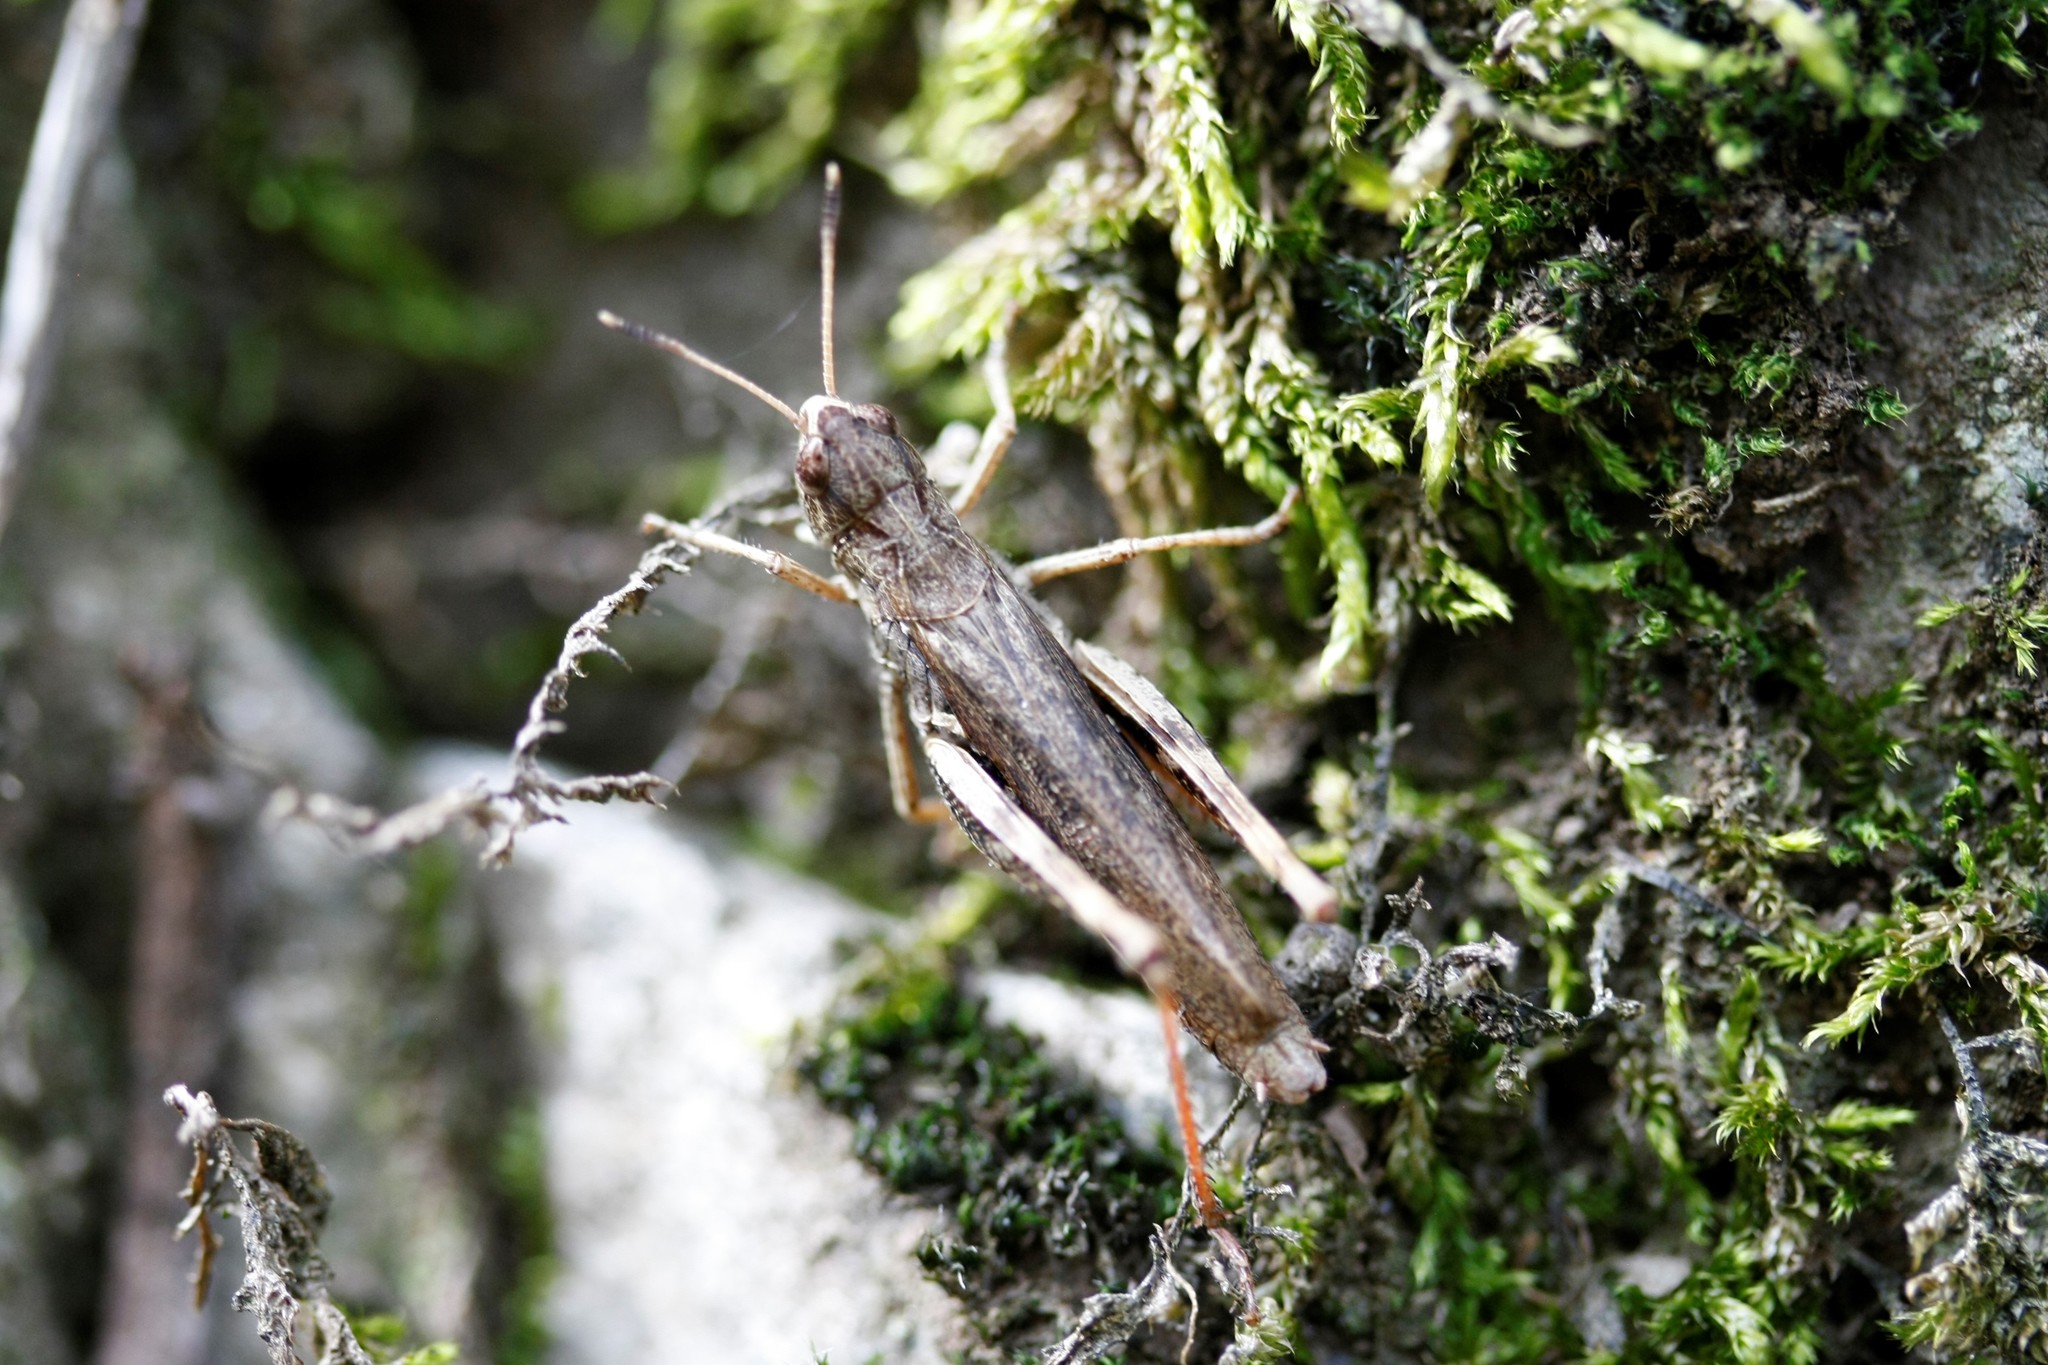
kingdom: Animalia
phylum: Arthropoda
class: Insecta
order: Orthoptera
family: Acrididae
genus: Gomphocerippus
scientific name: Gomphocerippus rufus
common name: Rufous grasshopper
